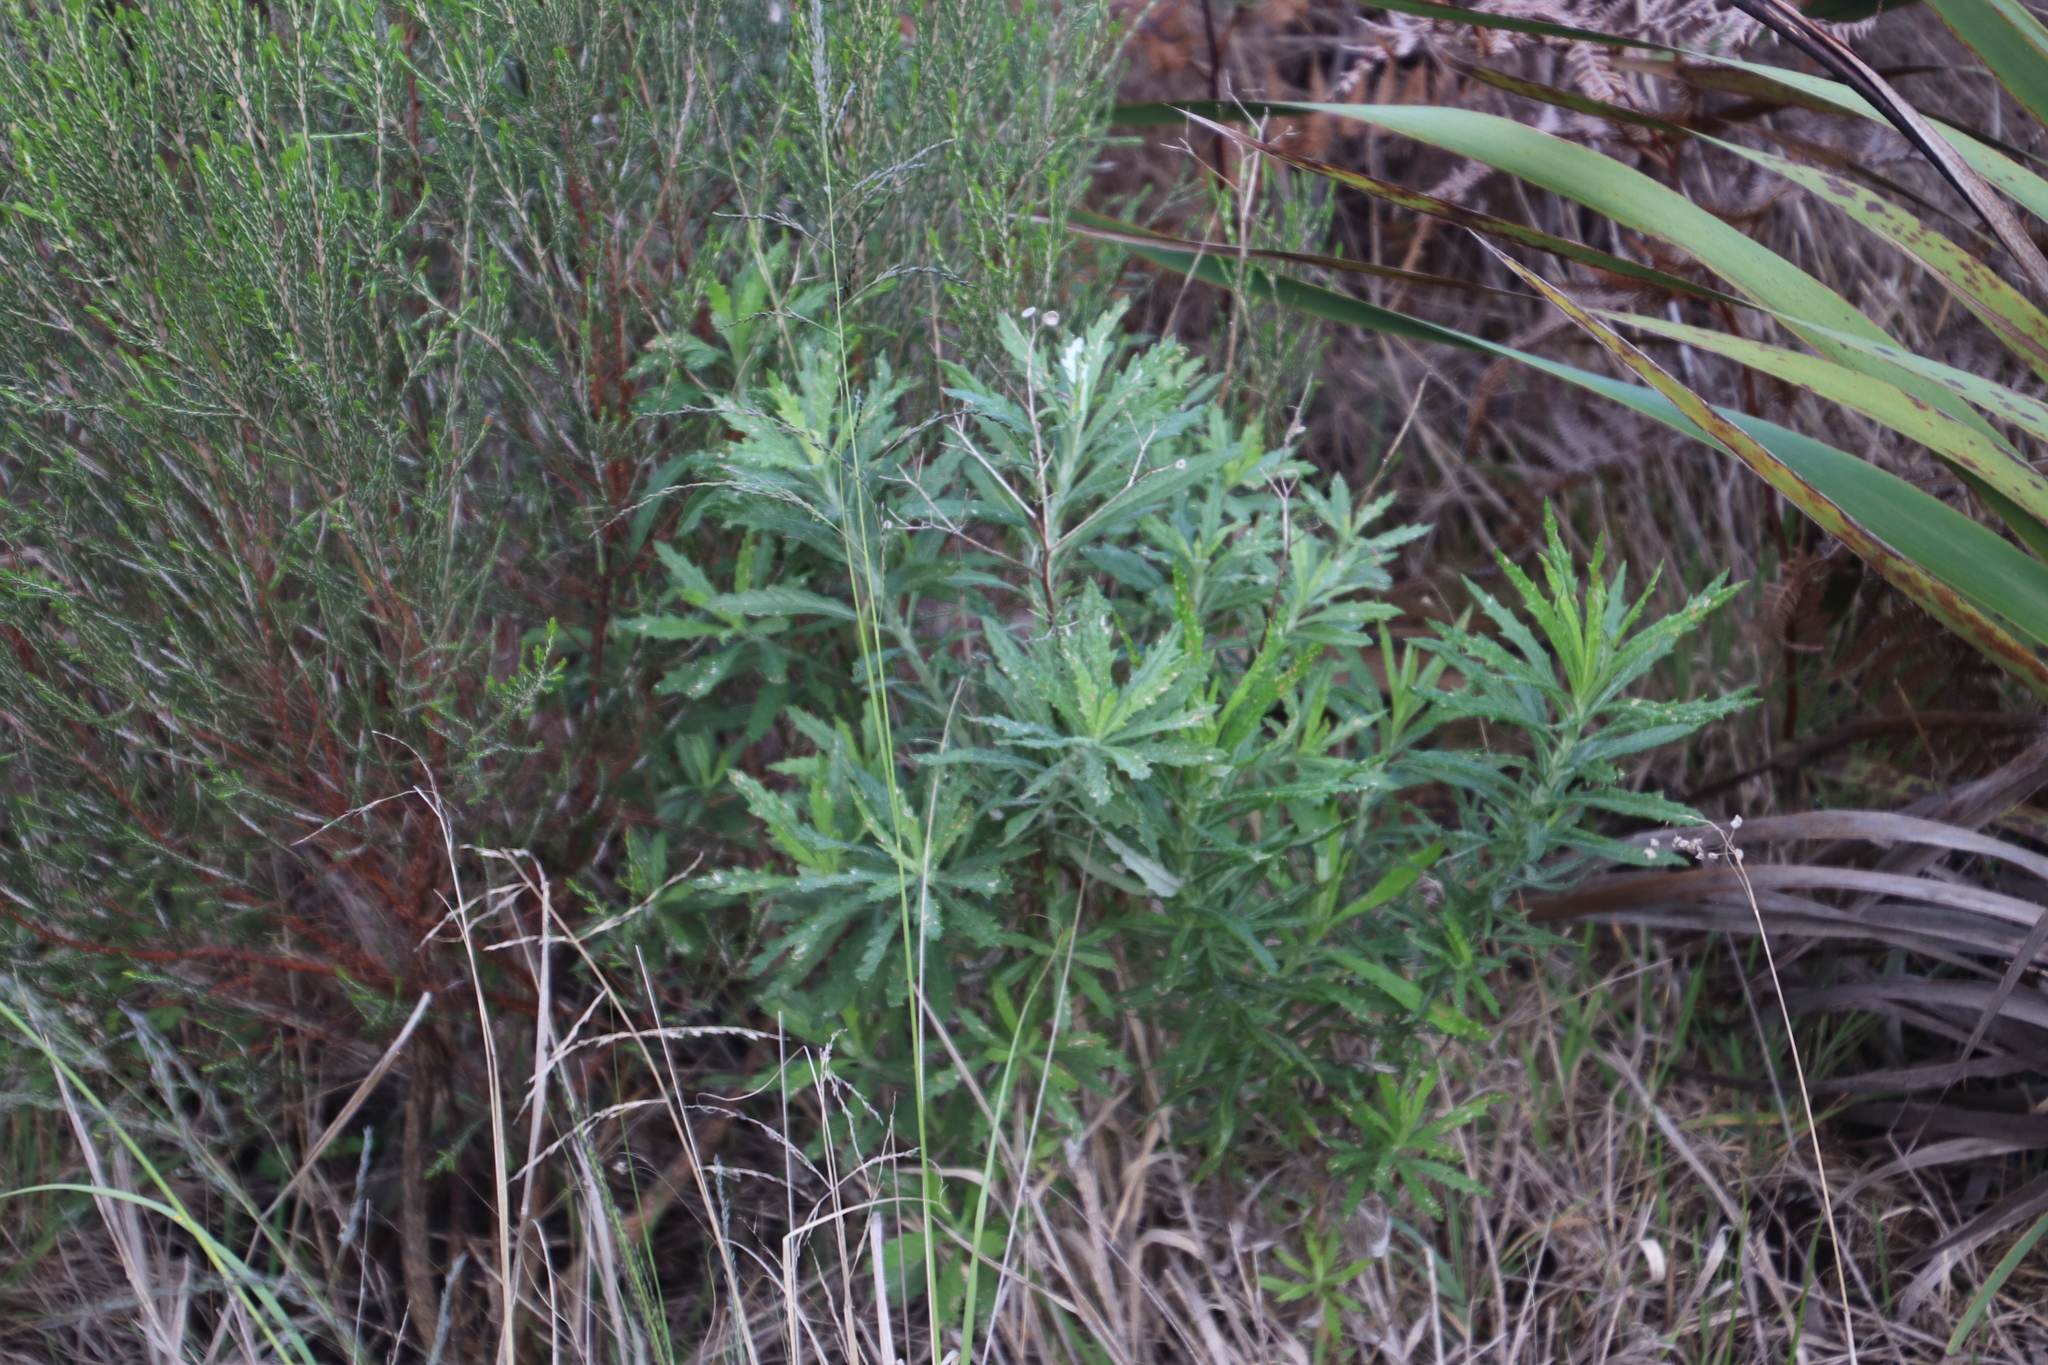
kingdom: Plantae
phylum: Tracheophyta
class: Magnoliopsida
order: Asterales
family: Asteraceae
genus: Senecio
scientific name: Senecio pterophorus
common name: Shoddy ragwort
